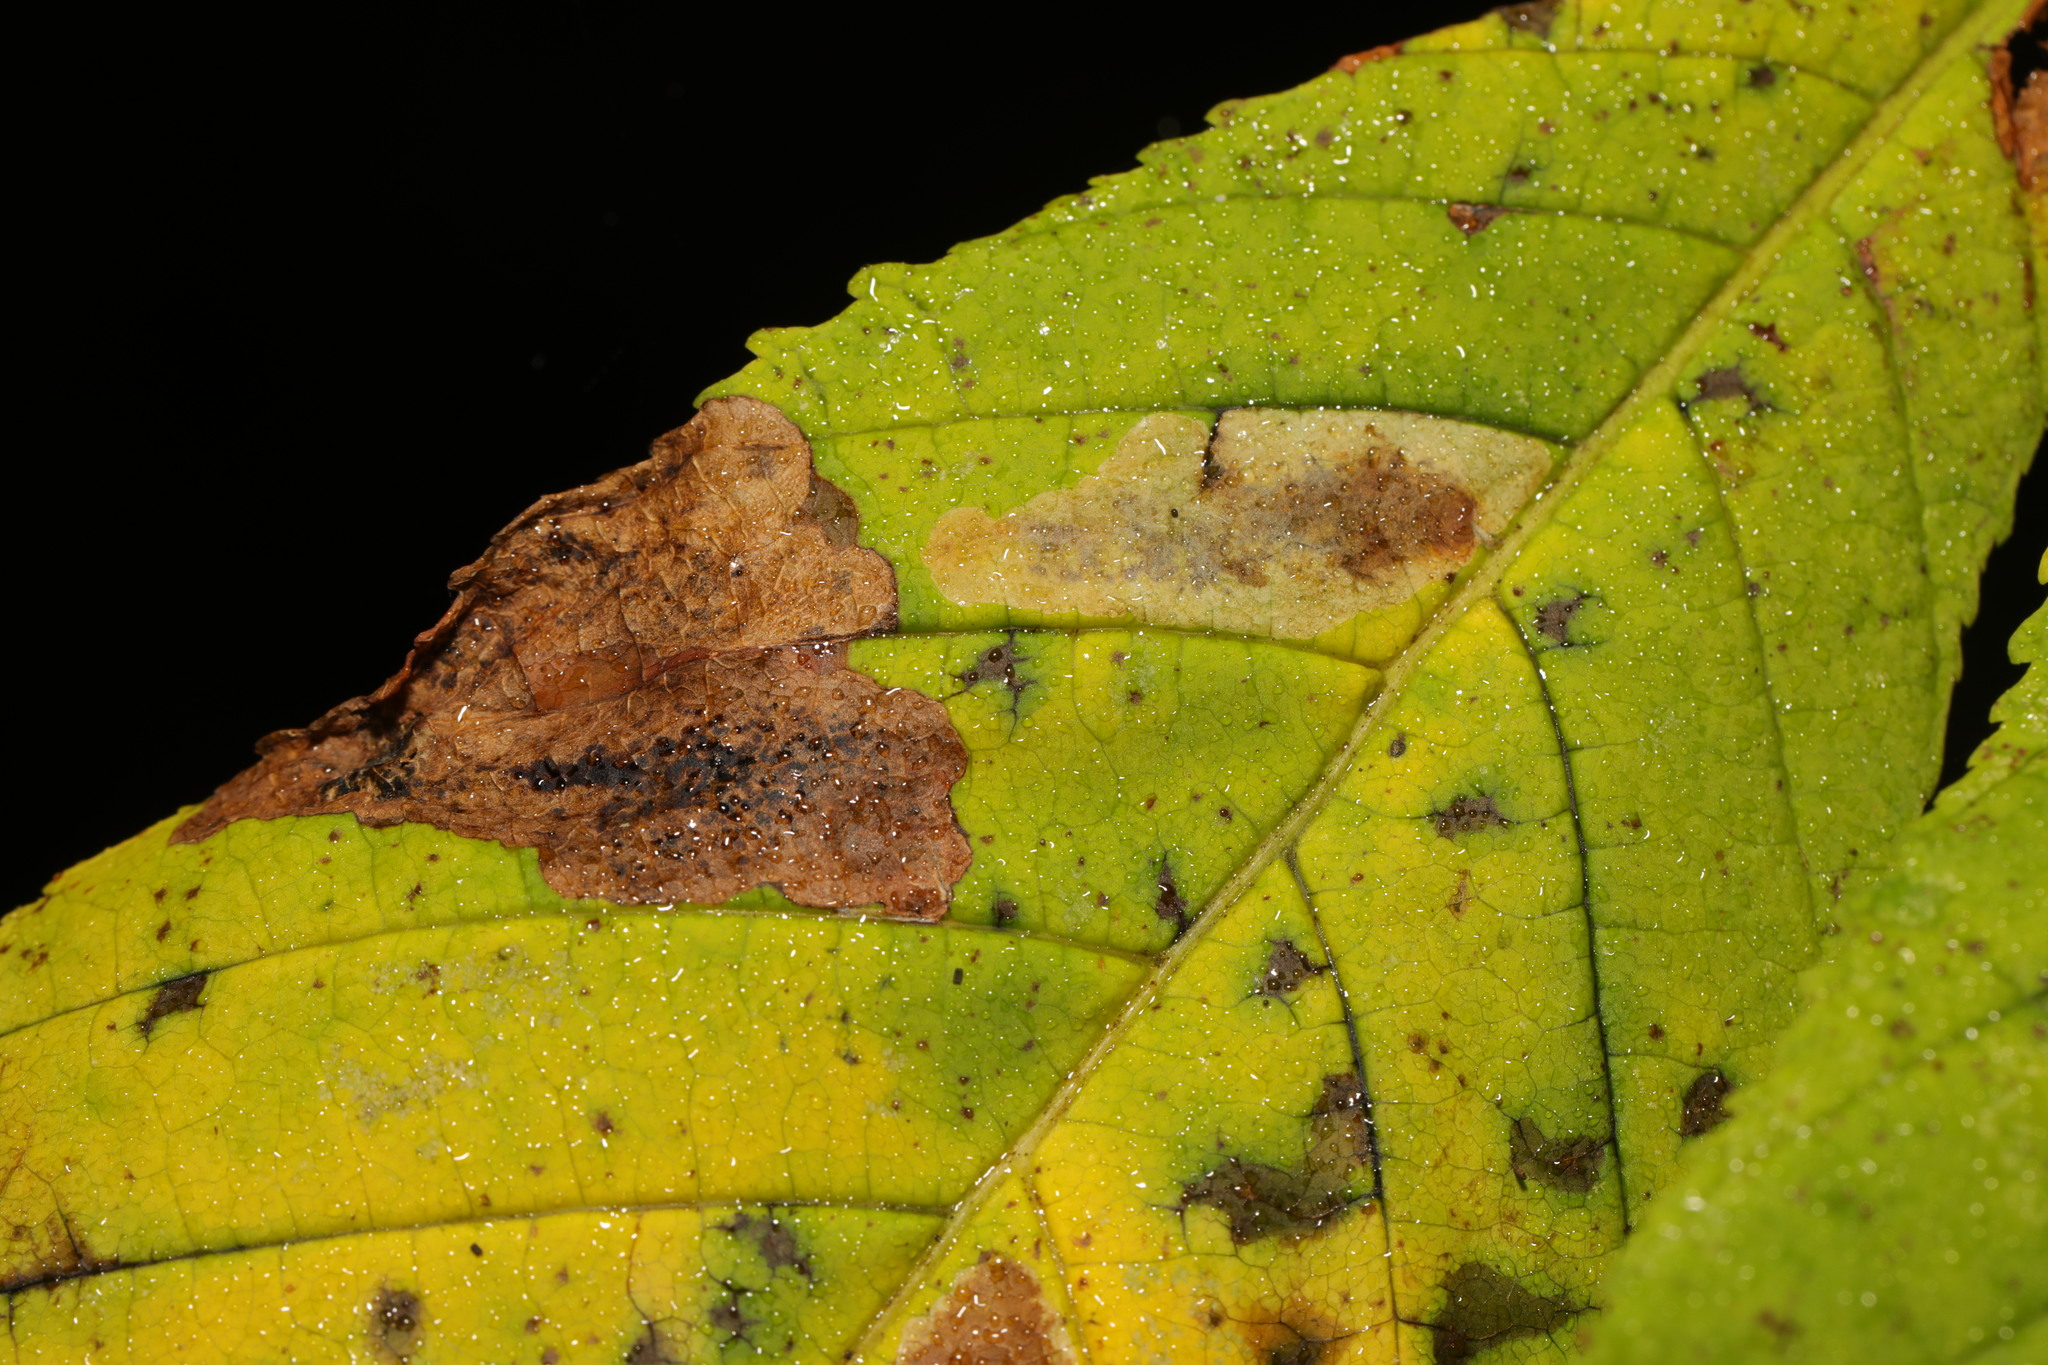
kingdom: Animalia
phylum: Arthropoda
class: Insecta
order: Lepidoptera
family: Gracillariidae
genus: Cameraria
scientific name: Cameraria ohridella
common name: Horse-chestnut leaf-miner
